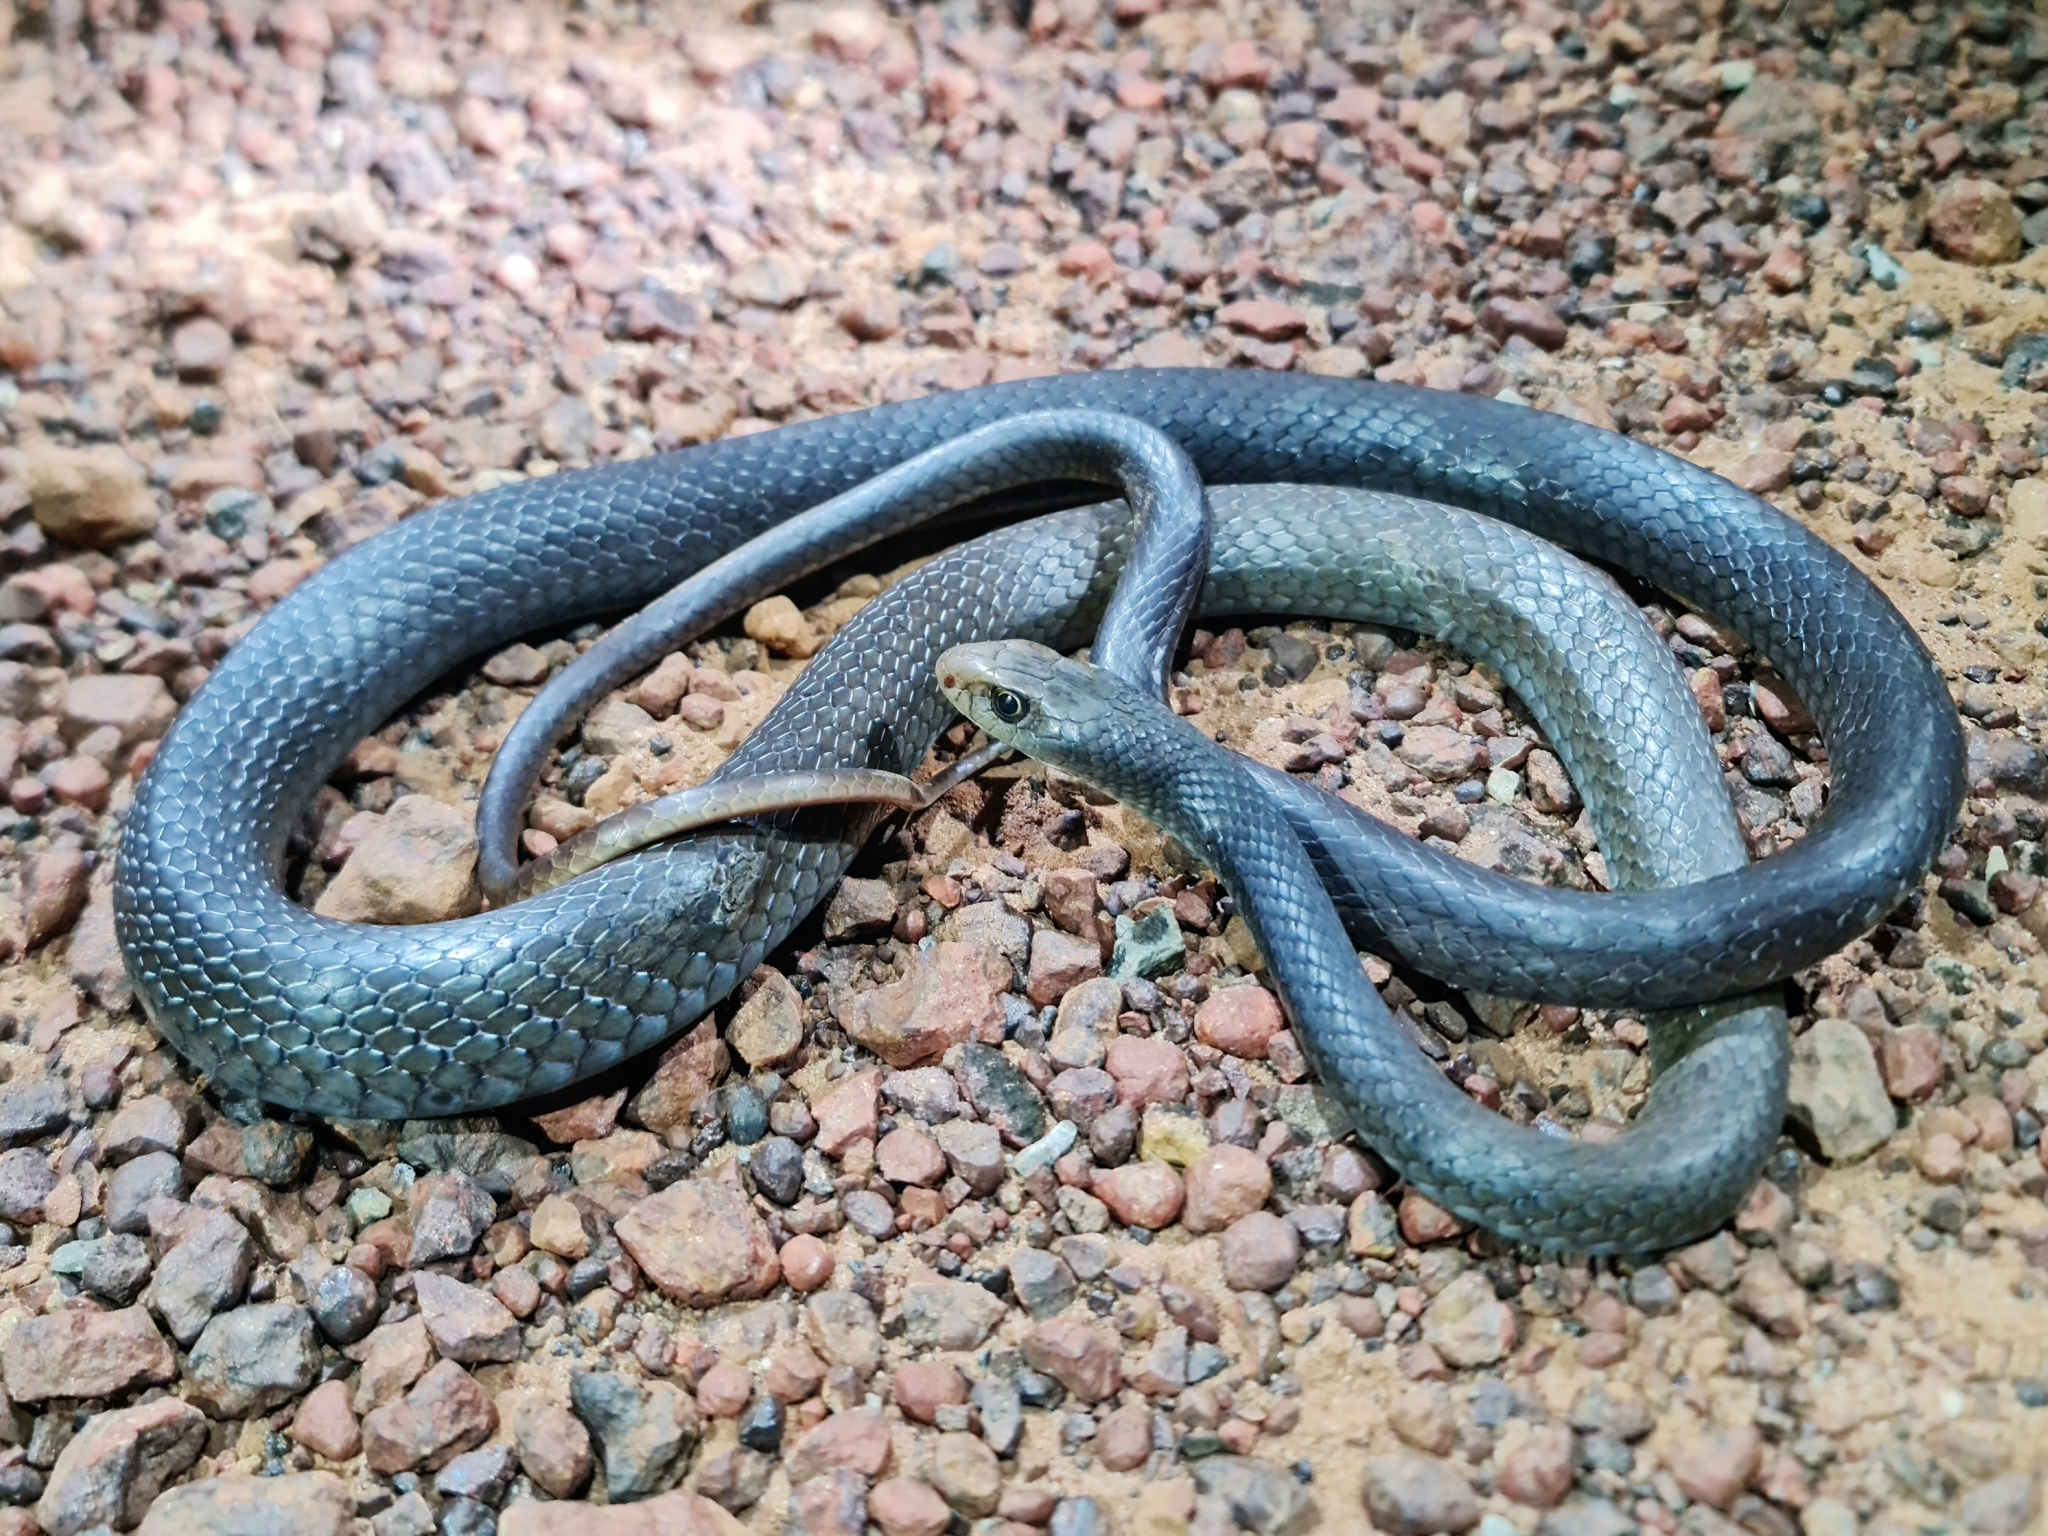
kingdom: Animalia
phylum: Chordata
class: Squamata
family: Elapidae
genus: Demansia
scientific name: Demansia papuensis
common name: Papuan whip snake
